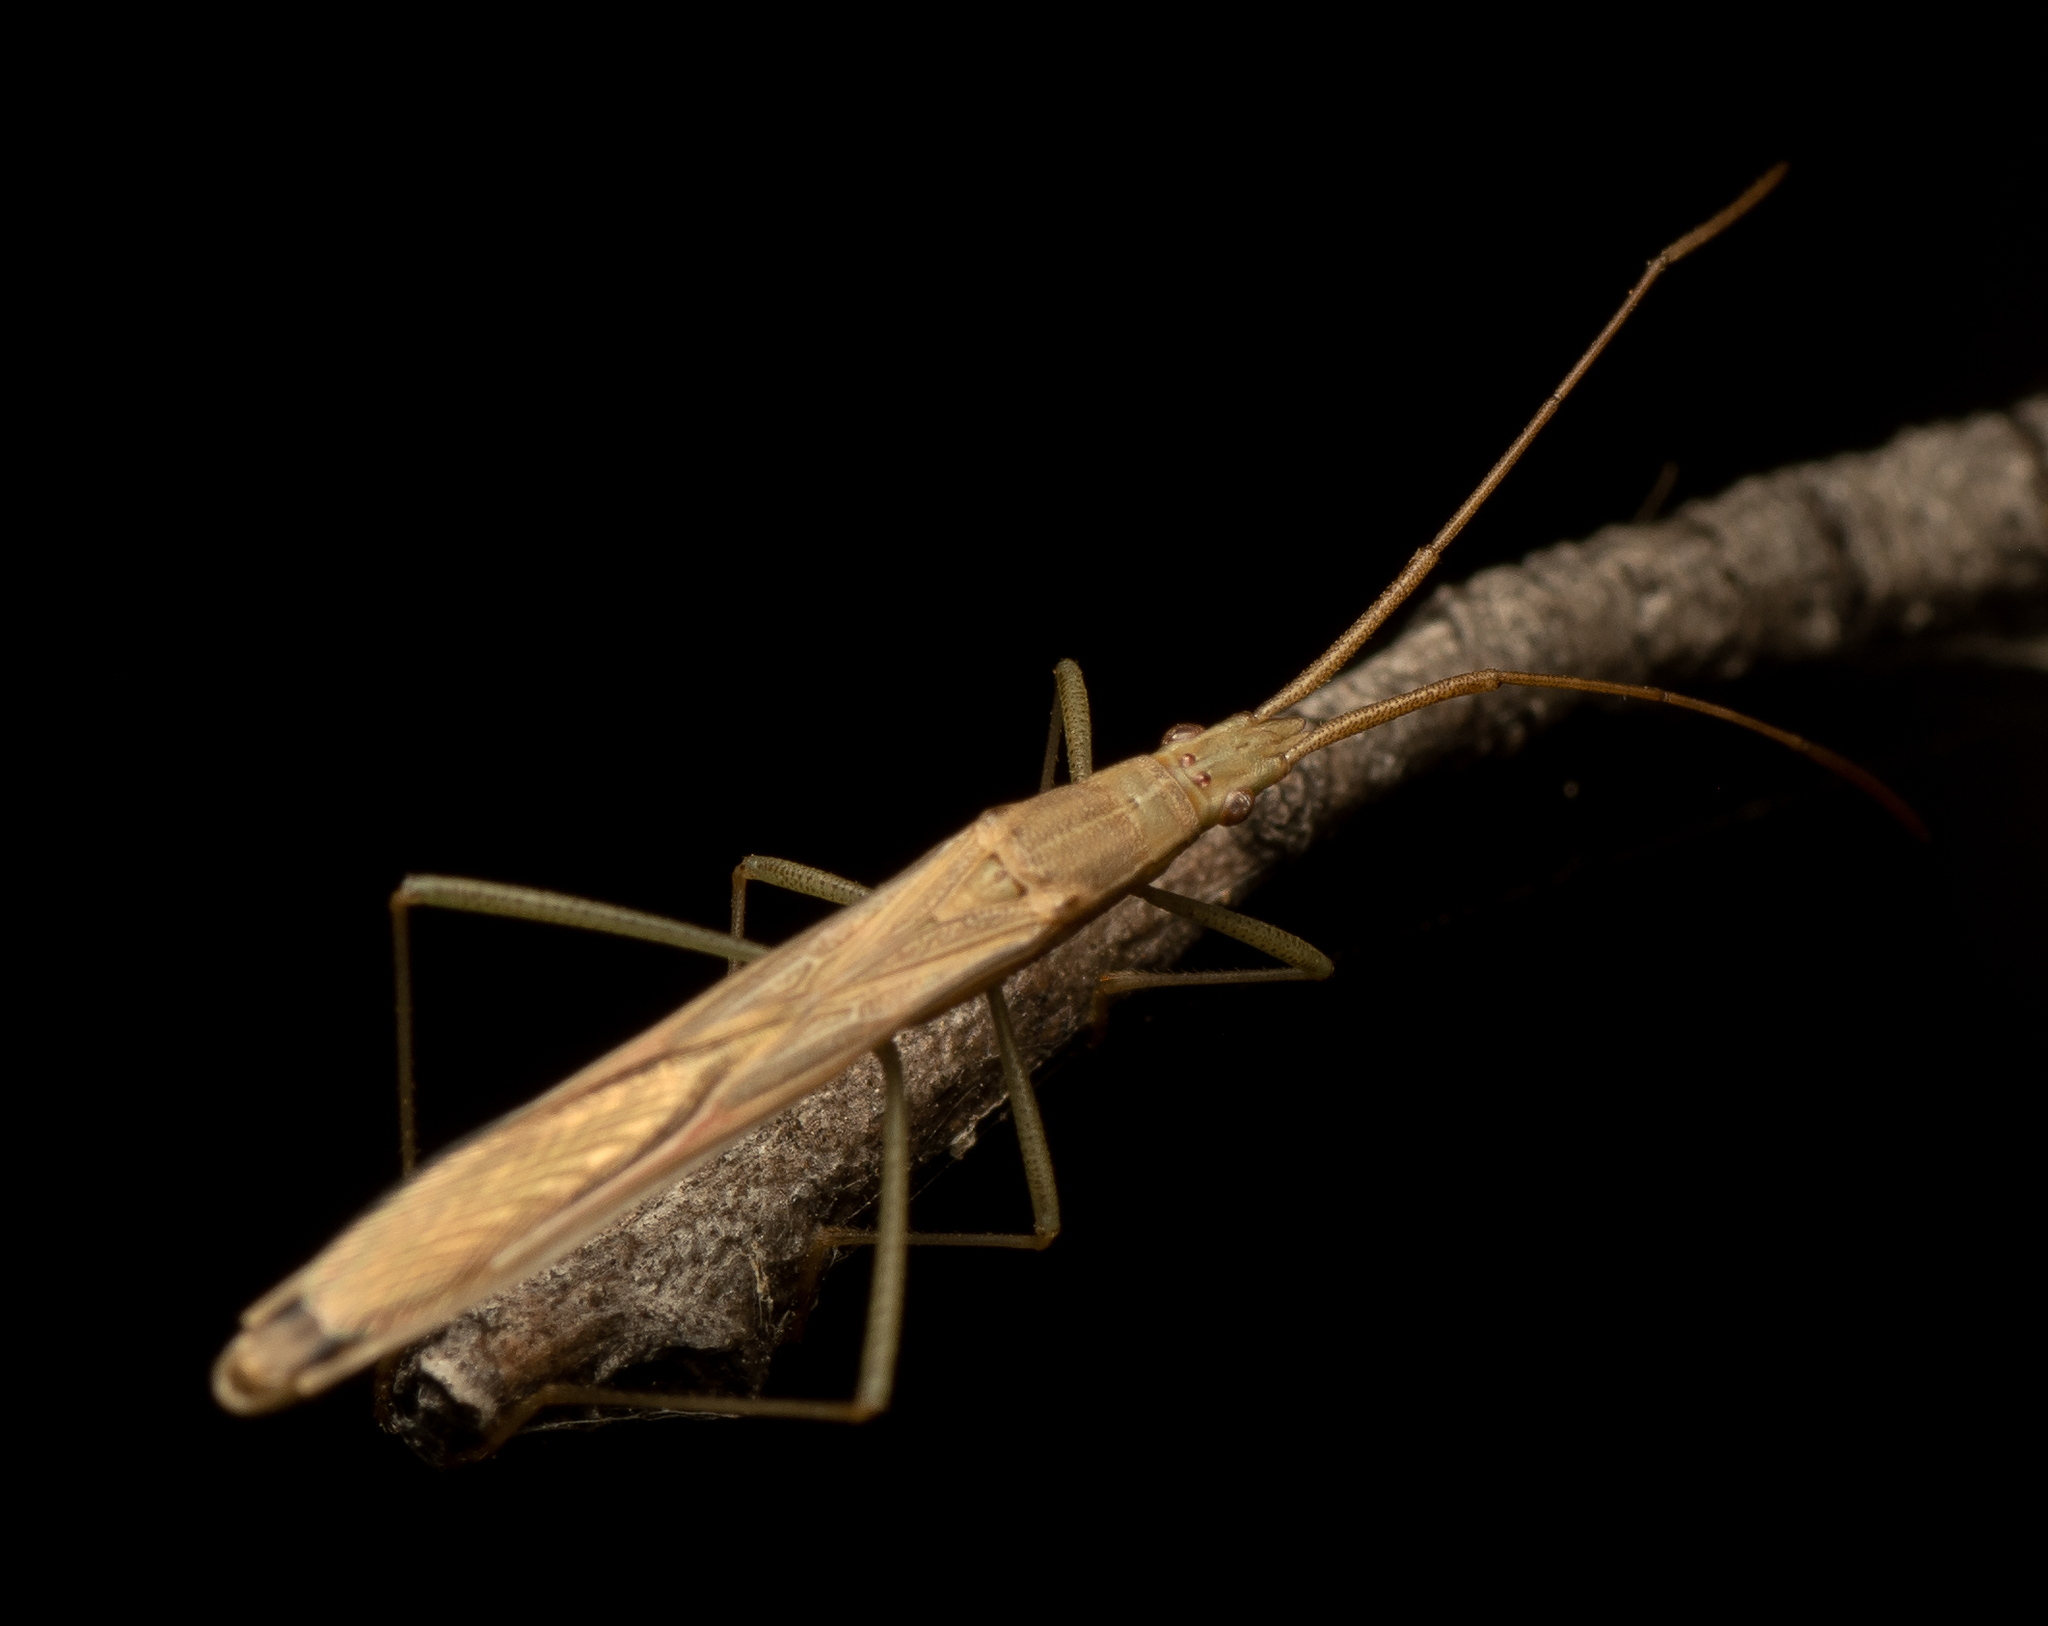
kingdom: Animalia
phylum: Arthropoda
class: Insecta
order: Hemiptera
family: Alydidae
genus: Mutusca
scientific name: Mutusca brevicornis
